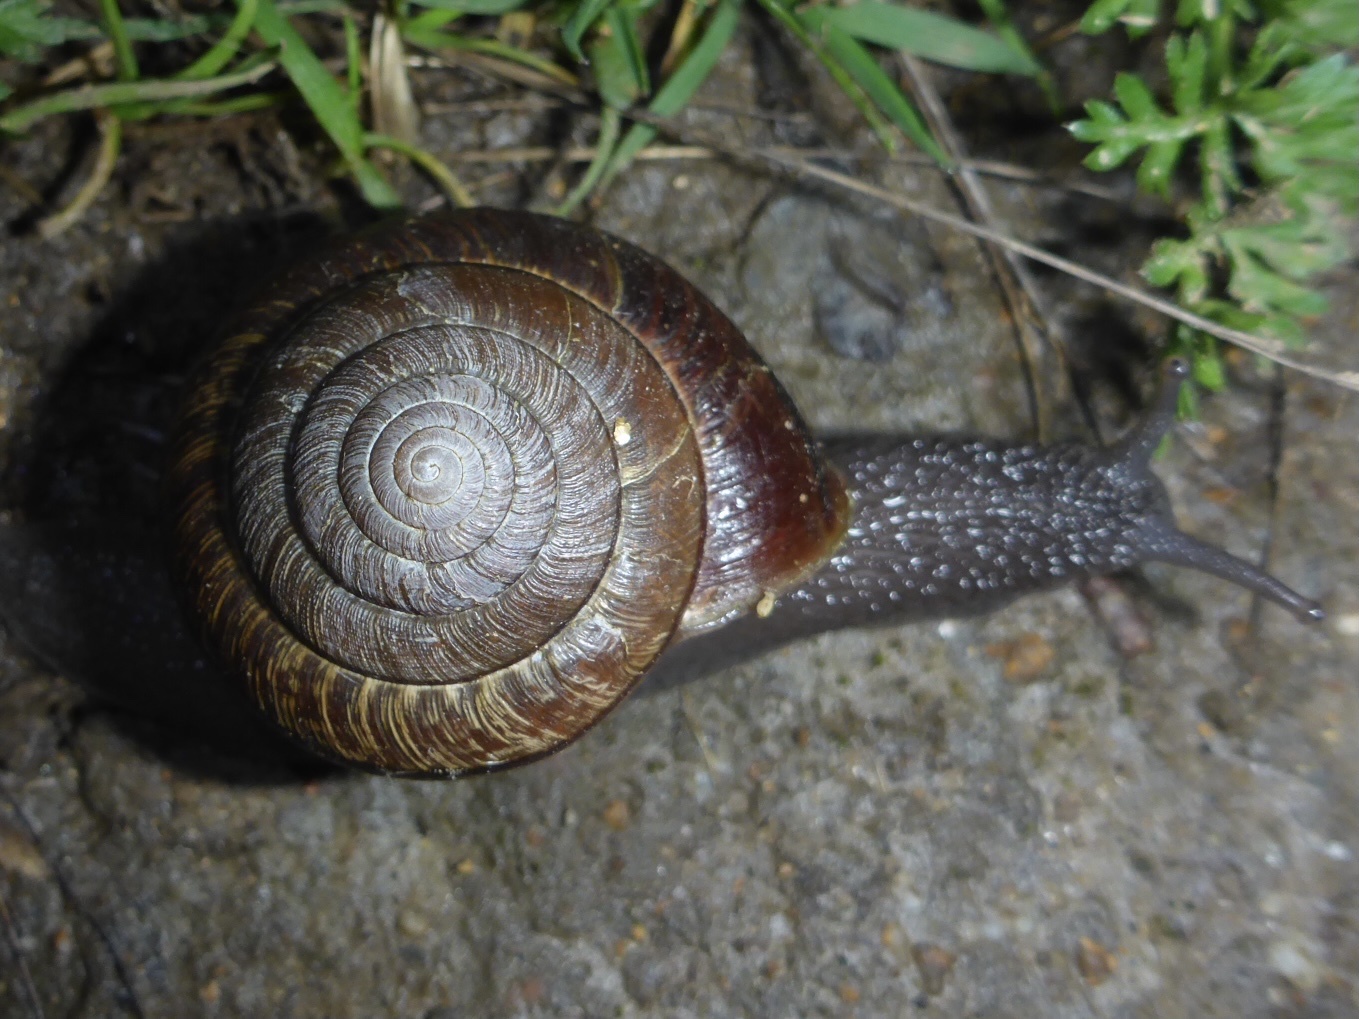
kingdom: Animalia
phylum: Mollusca
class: Gastropoda
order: Stylommatophora
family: Xanthonychidae
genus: Helminthoglypta
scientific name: Helminthoglypta arrosa
